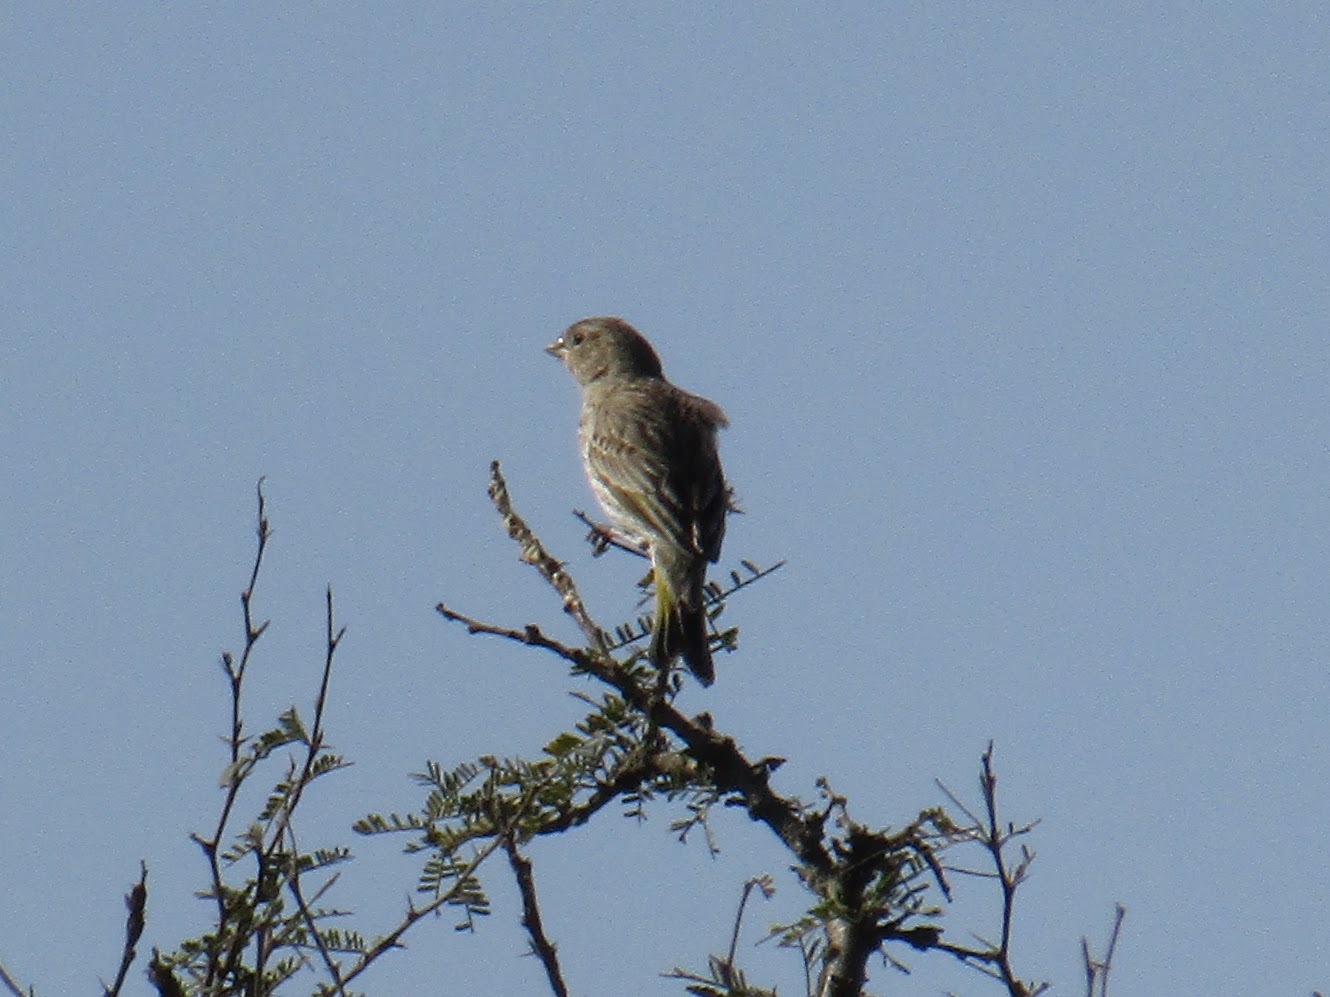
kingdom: Animalia
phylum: Chordata
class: Aves
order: Passeriformes
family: Thraupidae
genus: Sicalis
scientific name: Sicalis flaveola
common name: Saffron finch
